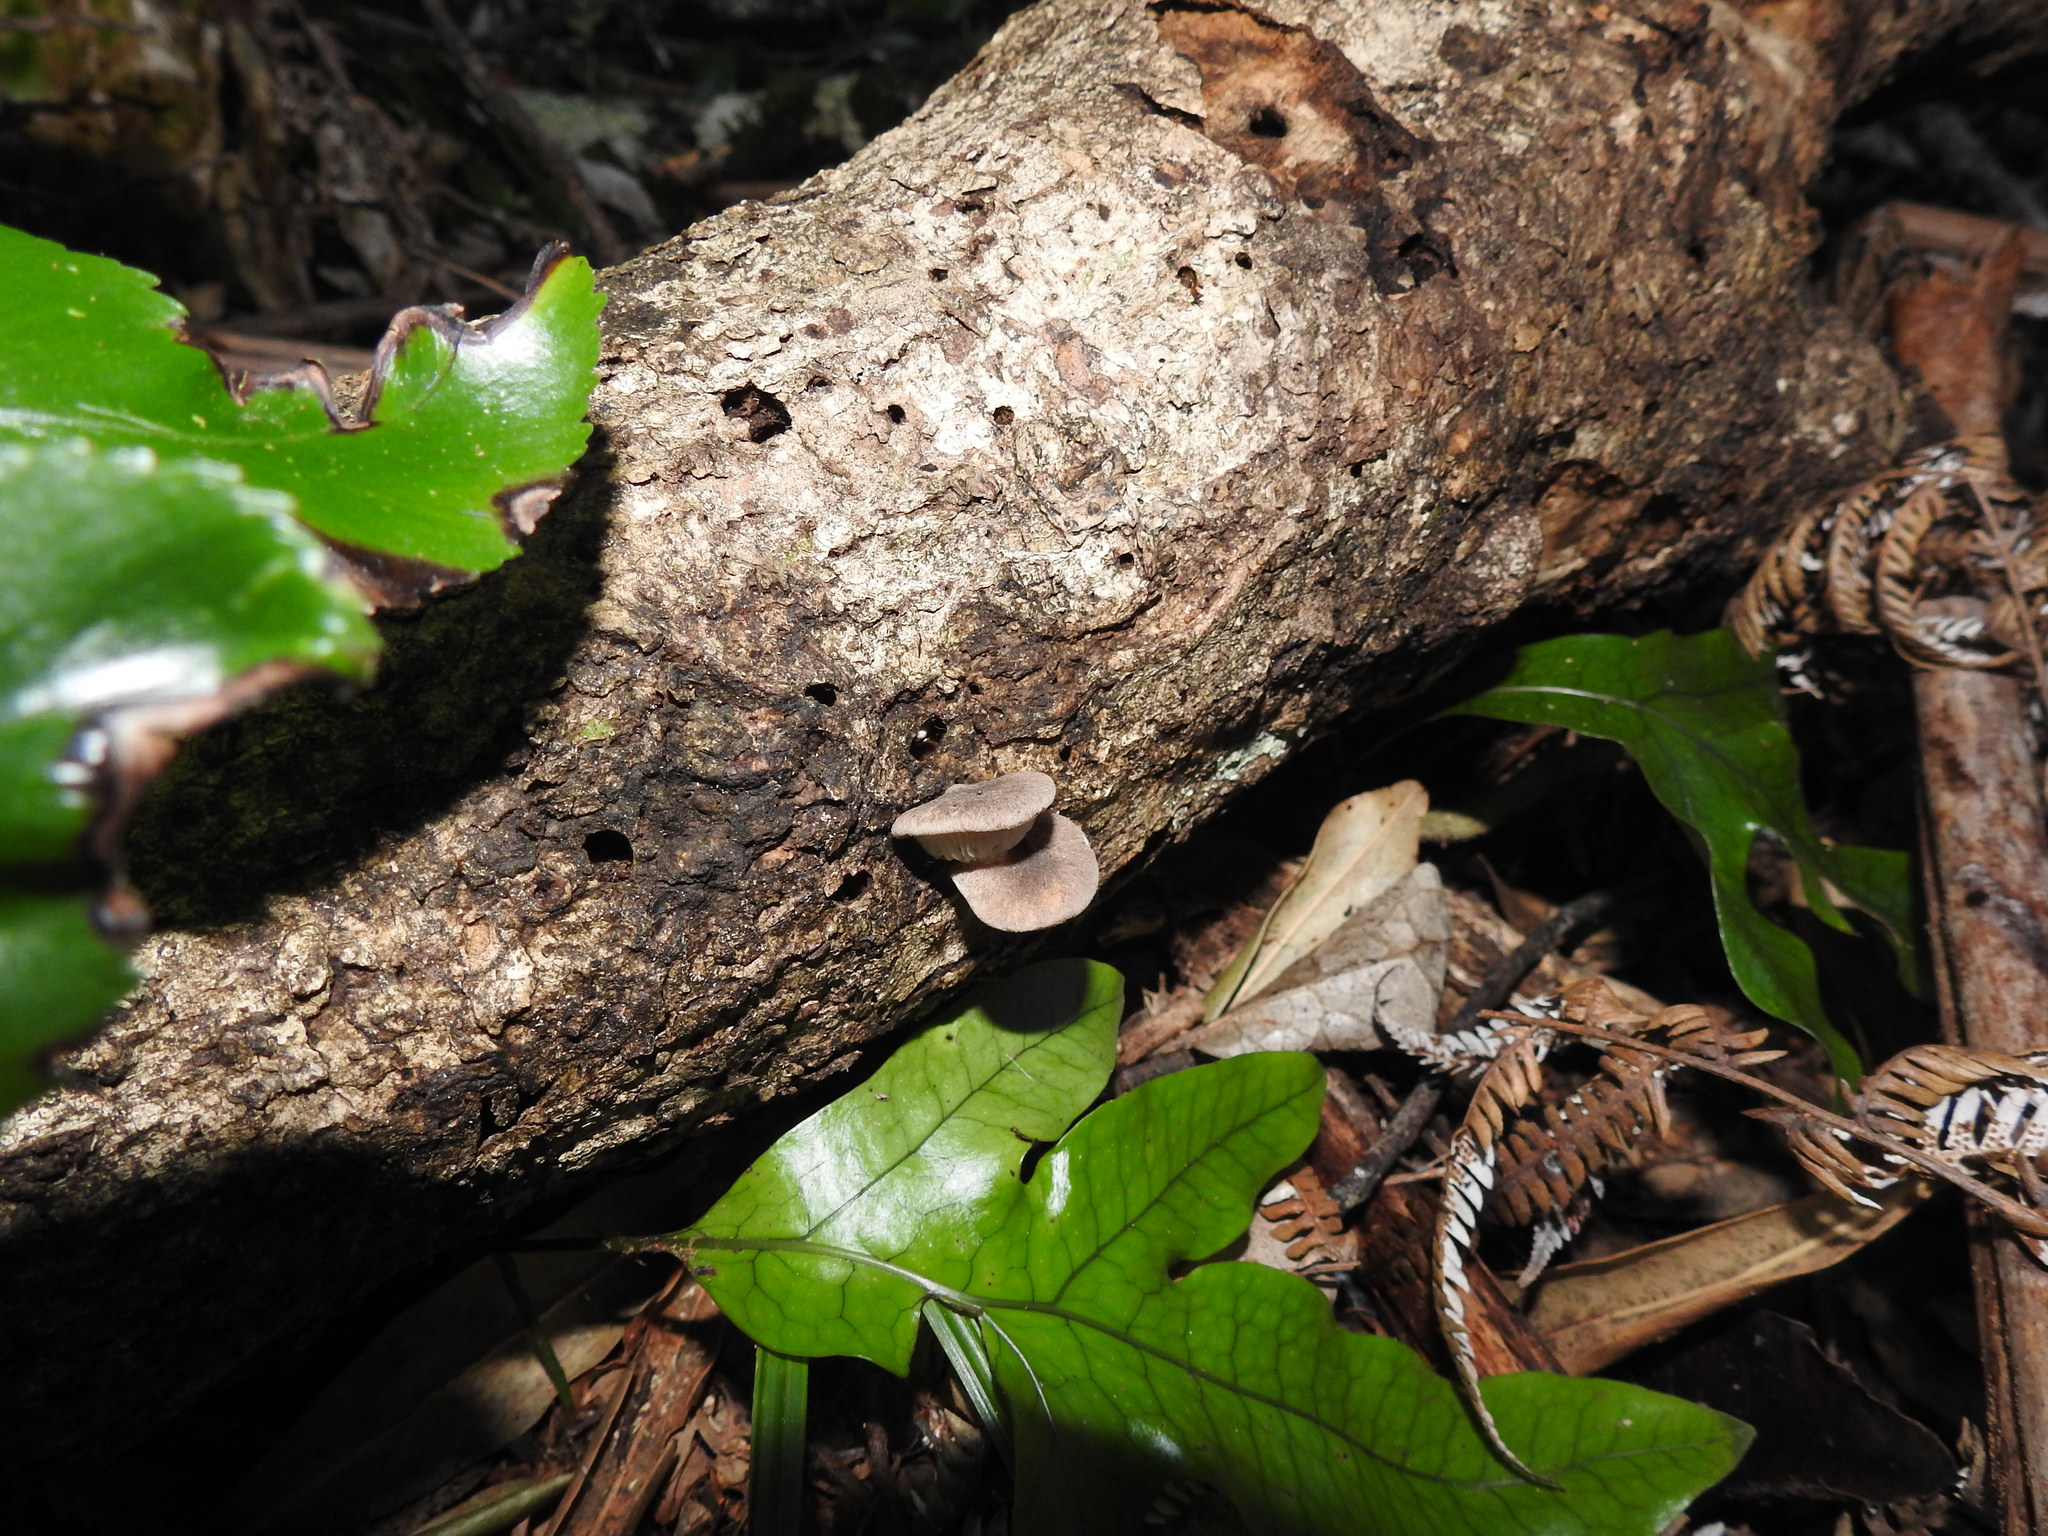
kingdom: Fungi
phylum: Basidiomycota
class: Agaricomycetes
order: Agaricales
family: Pleurotaceae
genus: Pleurotus
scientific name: Pleurotus parsonsiae
